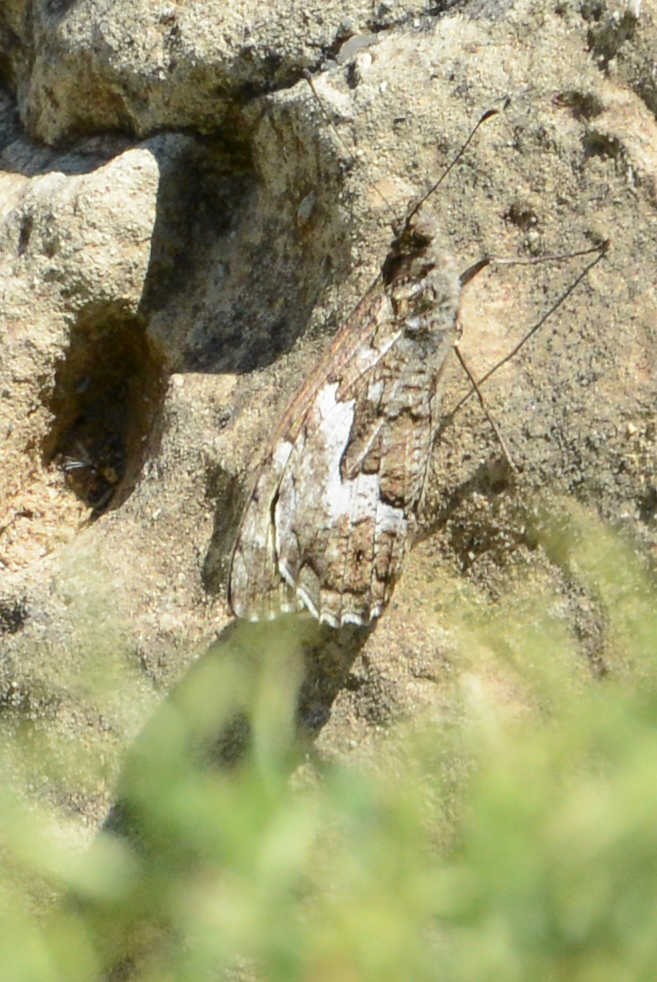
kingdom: Animalia
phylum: Arthropoda
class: Insecta
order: Lepidoptera
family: Nymphalidae
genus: Hipparchia
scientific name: Hipparchia cretica
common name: Cretan grayling
